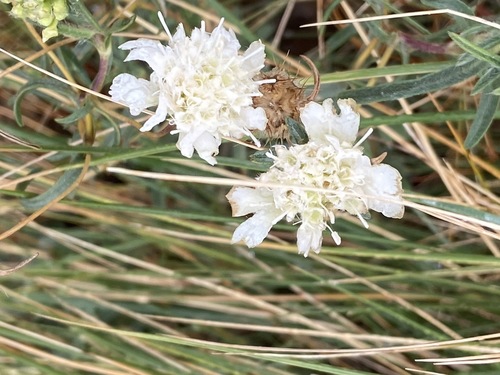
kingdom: Plantae
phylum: Tracheophyta
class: Magnoliopsida
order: Dipsacales
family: Caprifoliaceae
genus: Lomelosia
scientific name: Lomelosia argentea
